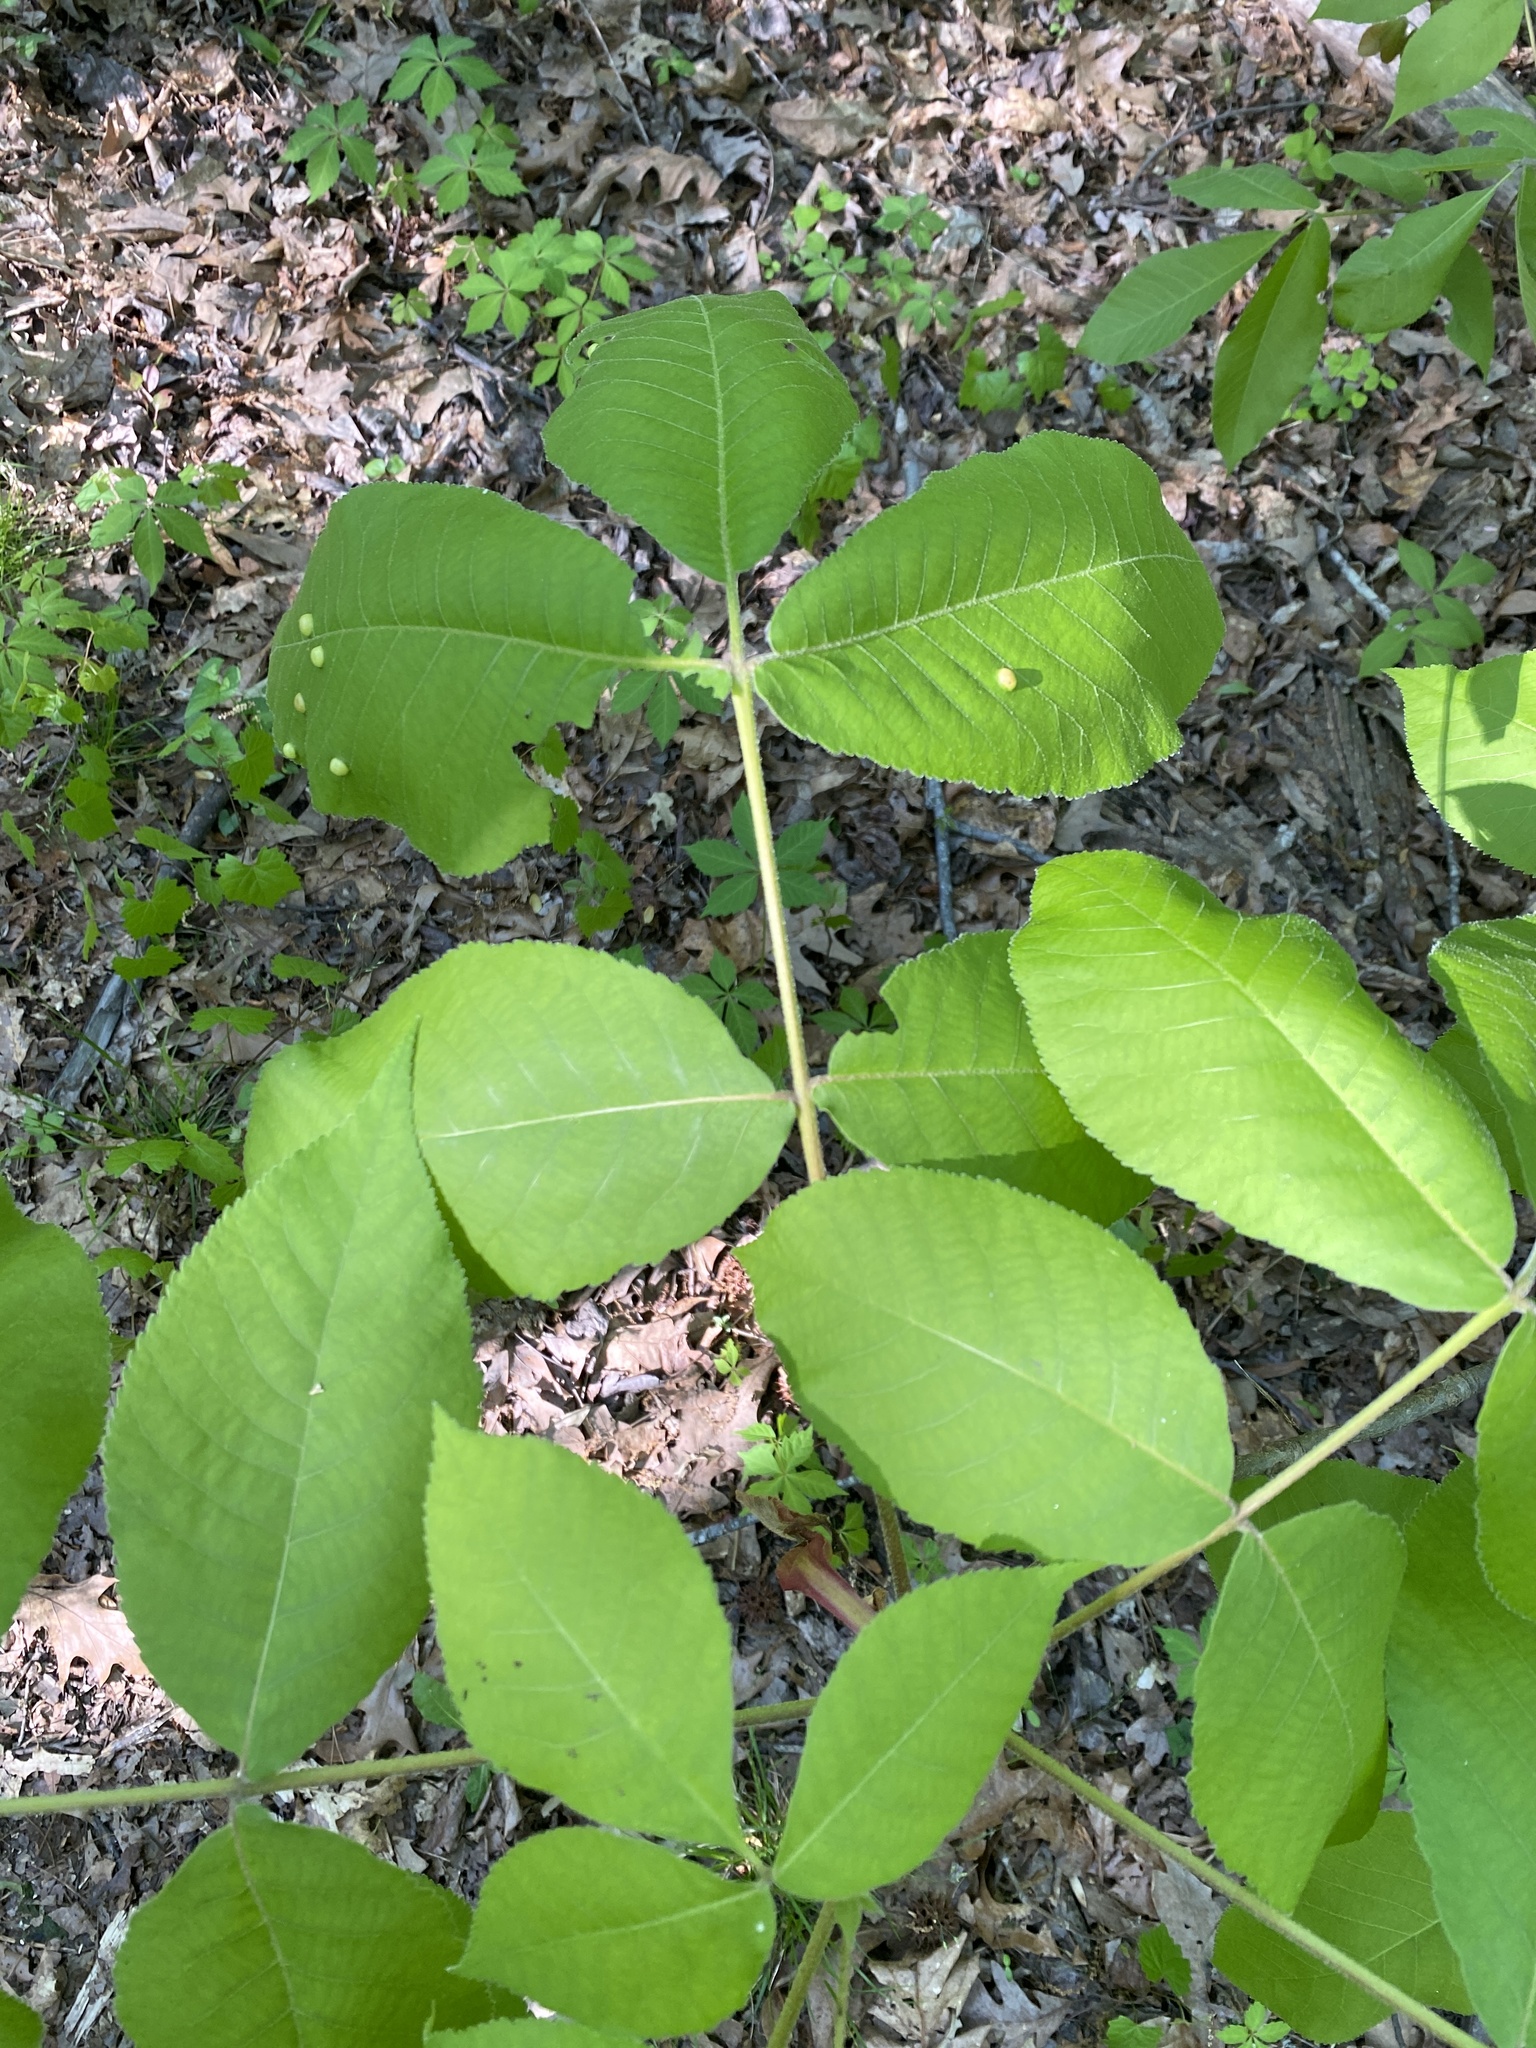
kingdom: Plantae
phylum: Tracheophyta
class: Magnoliopsida
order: Fagales
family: Juglandaceae
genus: Carya
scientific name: Carya alba
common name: Mockernut hickory
